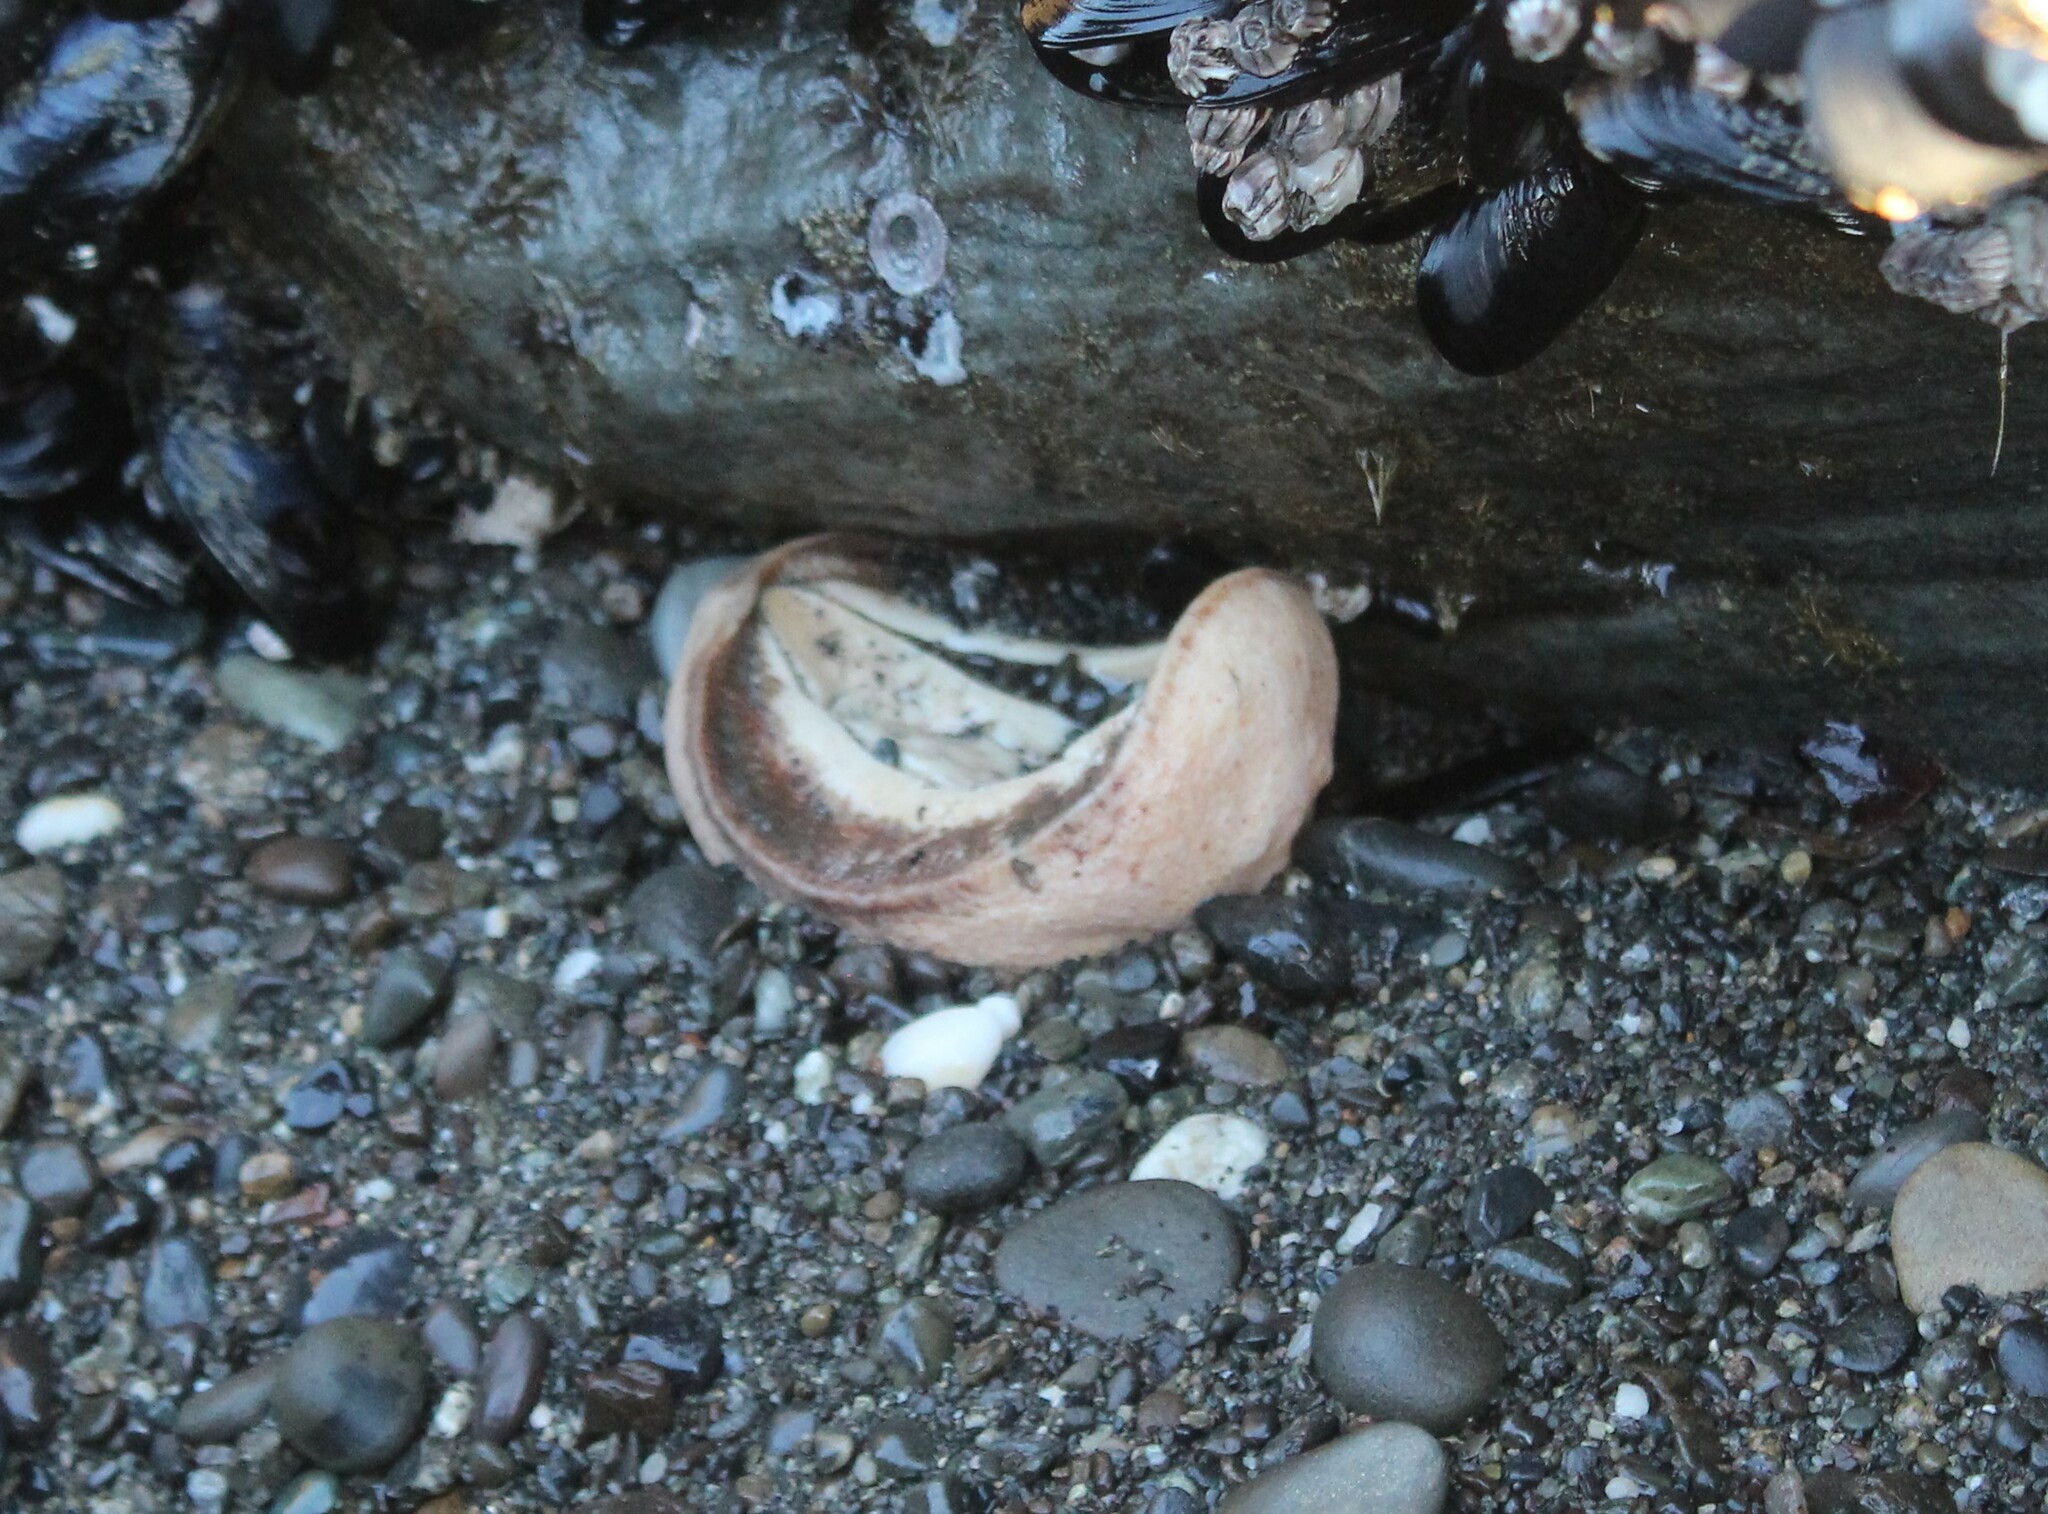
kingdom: Animalia
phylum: Mollusca
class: Polyplacophora
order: Chitonida
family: Acanthochitonidae
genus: Cryptochiton
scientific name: Cryptochiton stelleri
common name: Giant pacific chiton
